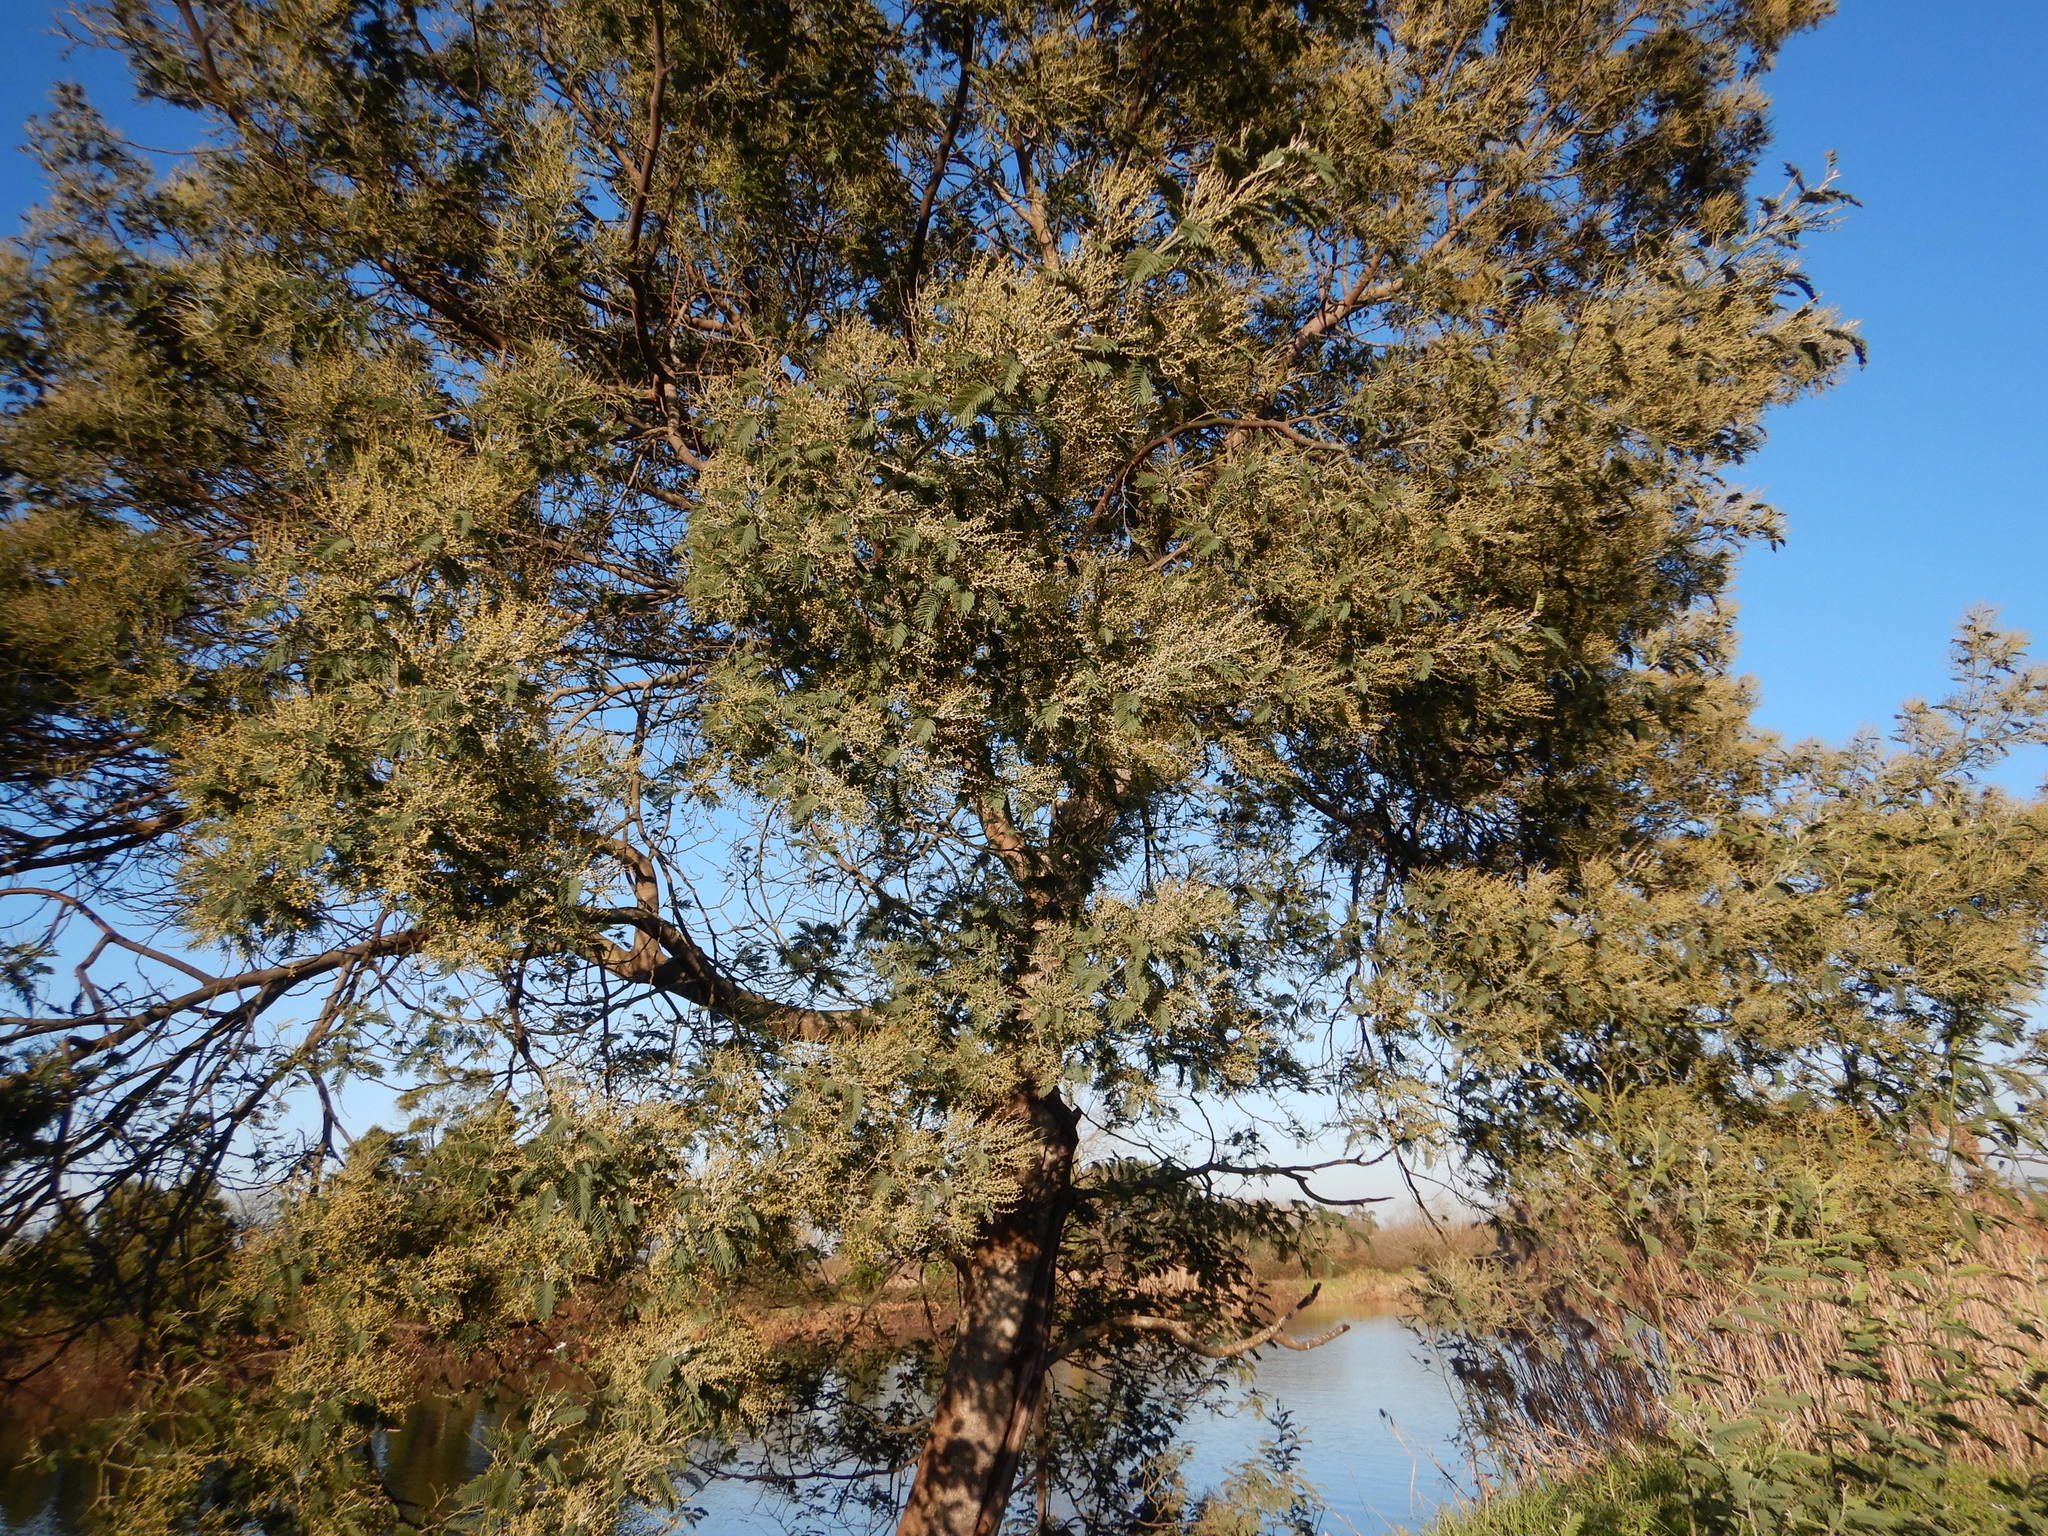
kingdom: Plantae
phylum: Tracheophyta
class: Magnoliopsida
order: Fabales
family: Fabaceae
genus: Acacia
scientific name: Acacia dealbata
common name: Silver wattle
